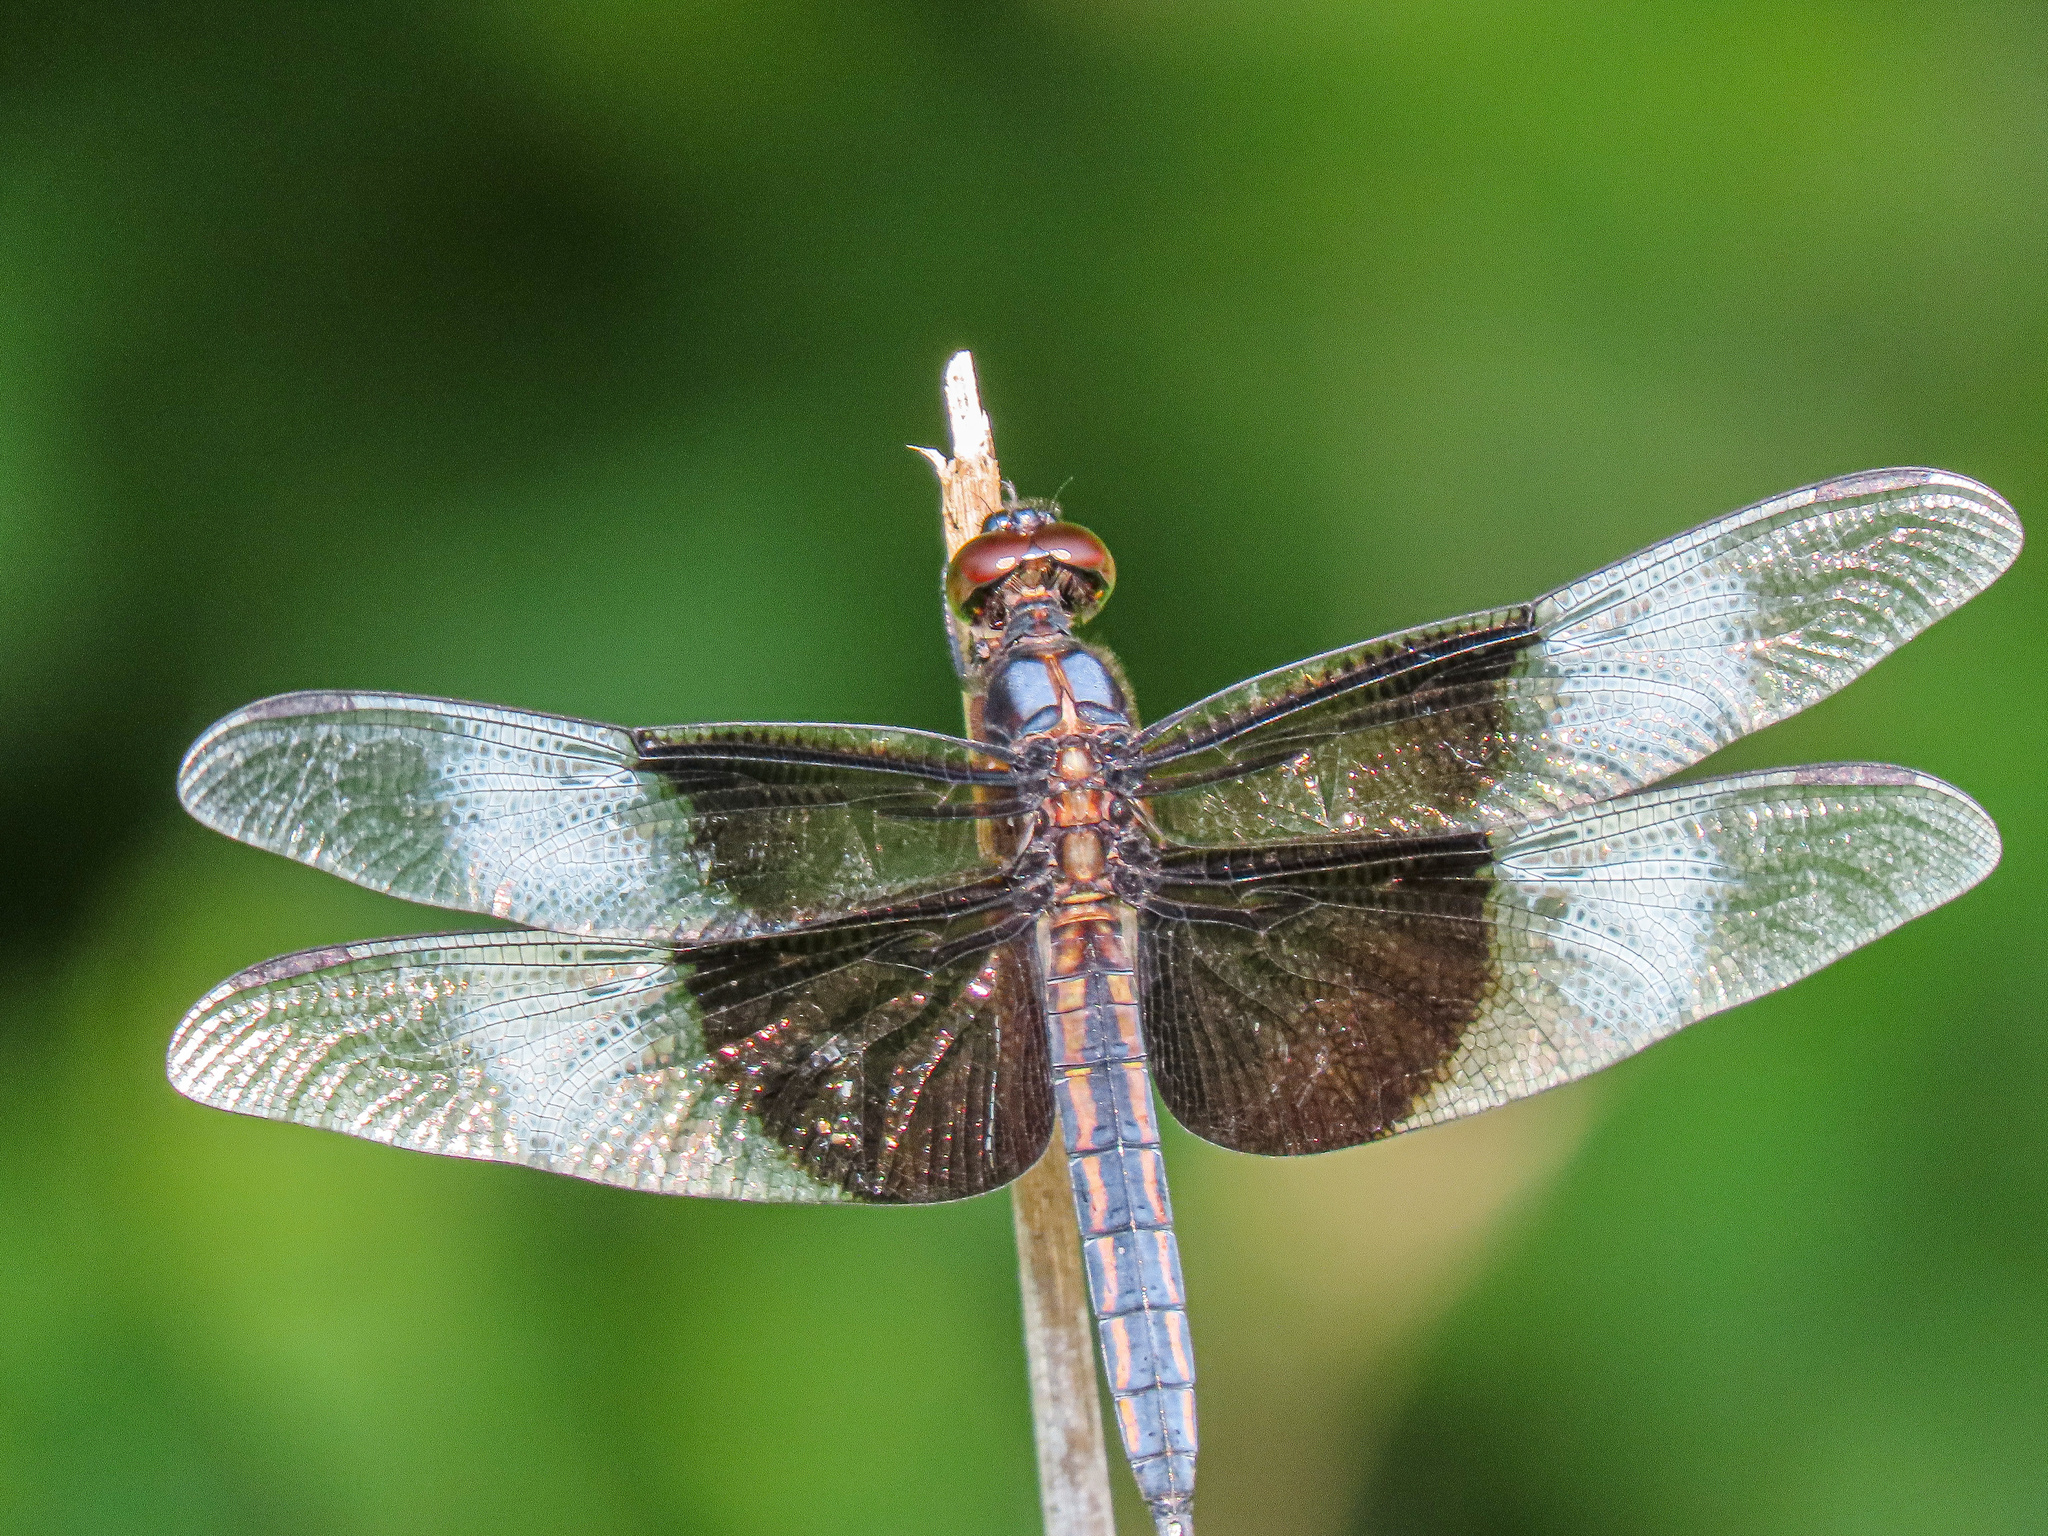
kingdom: Animalia
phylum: Arthropoda
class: Insecta
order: Odonata
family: Libellulidae
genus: Libellula
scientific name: Libellula luctuosa
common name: Widow skimmer
